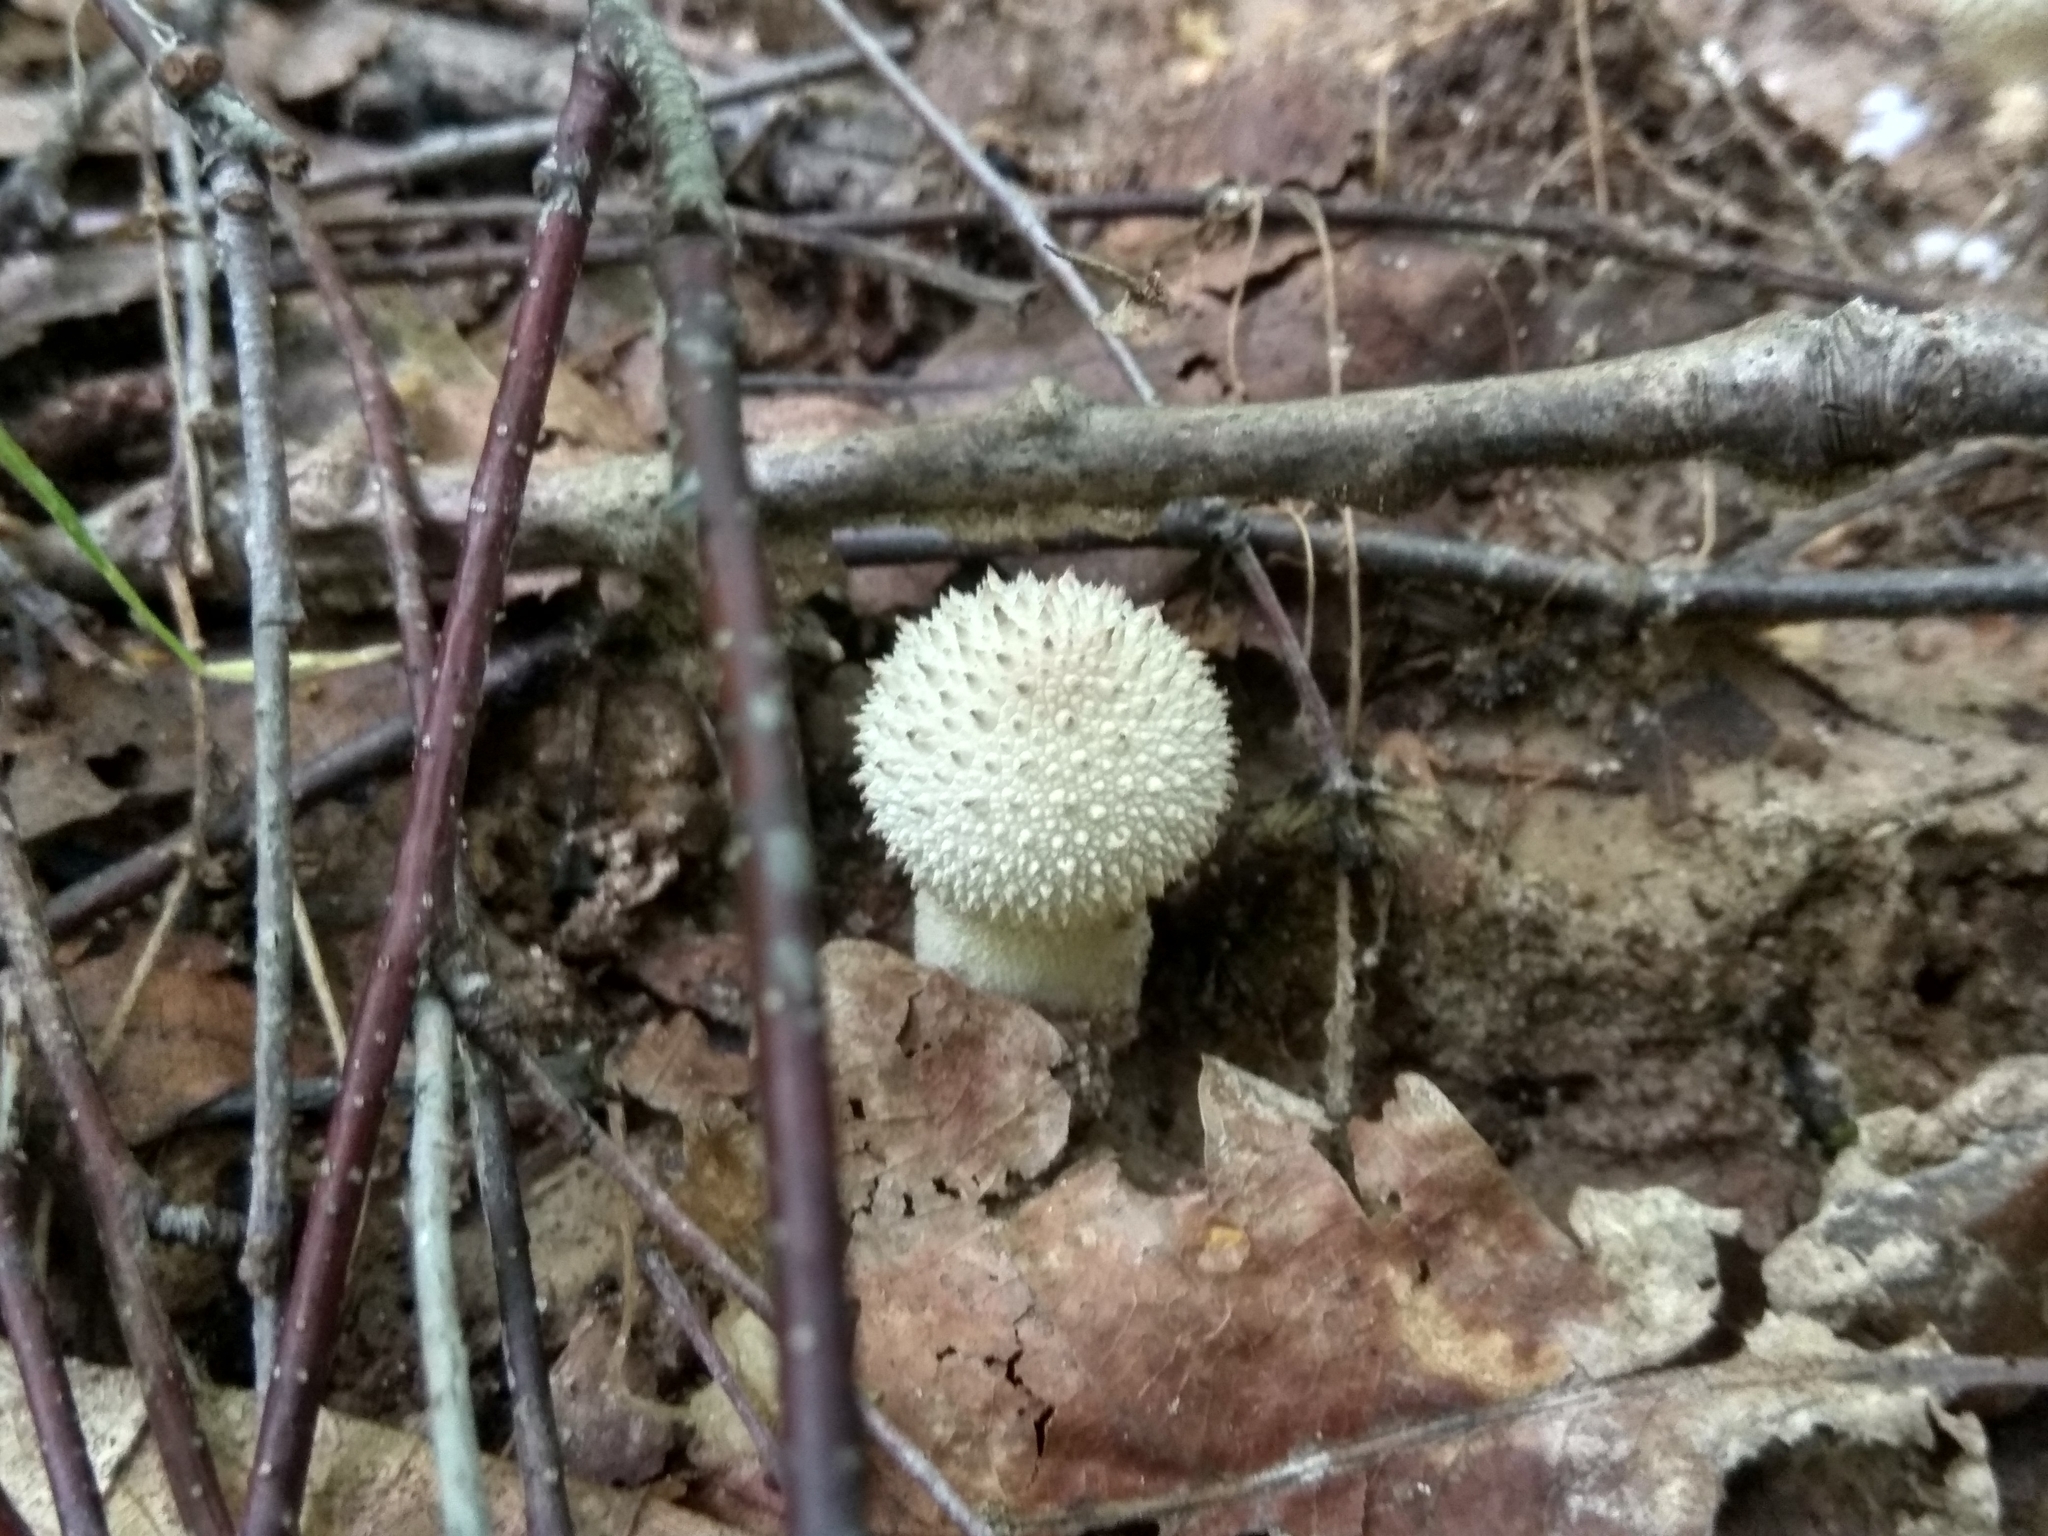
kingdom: Fungi
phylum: Basidiomycota
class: Agaricomycetes
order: Agaricales
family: Lycoperdaceae
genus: Lycoperdon
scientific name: Lycoperdon perlatum
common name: Common puffball
